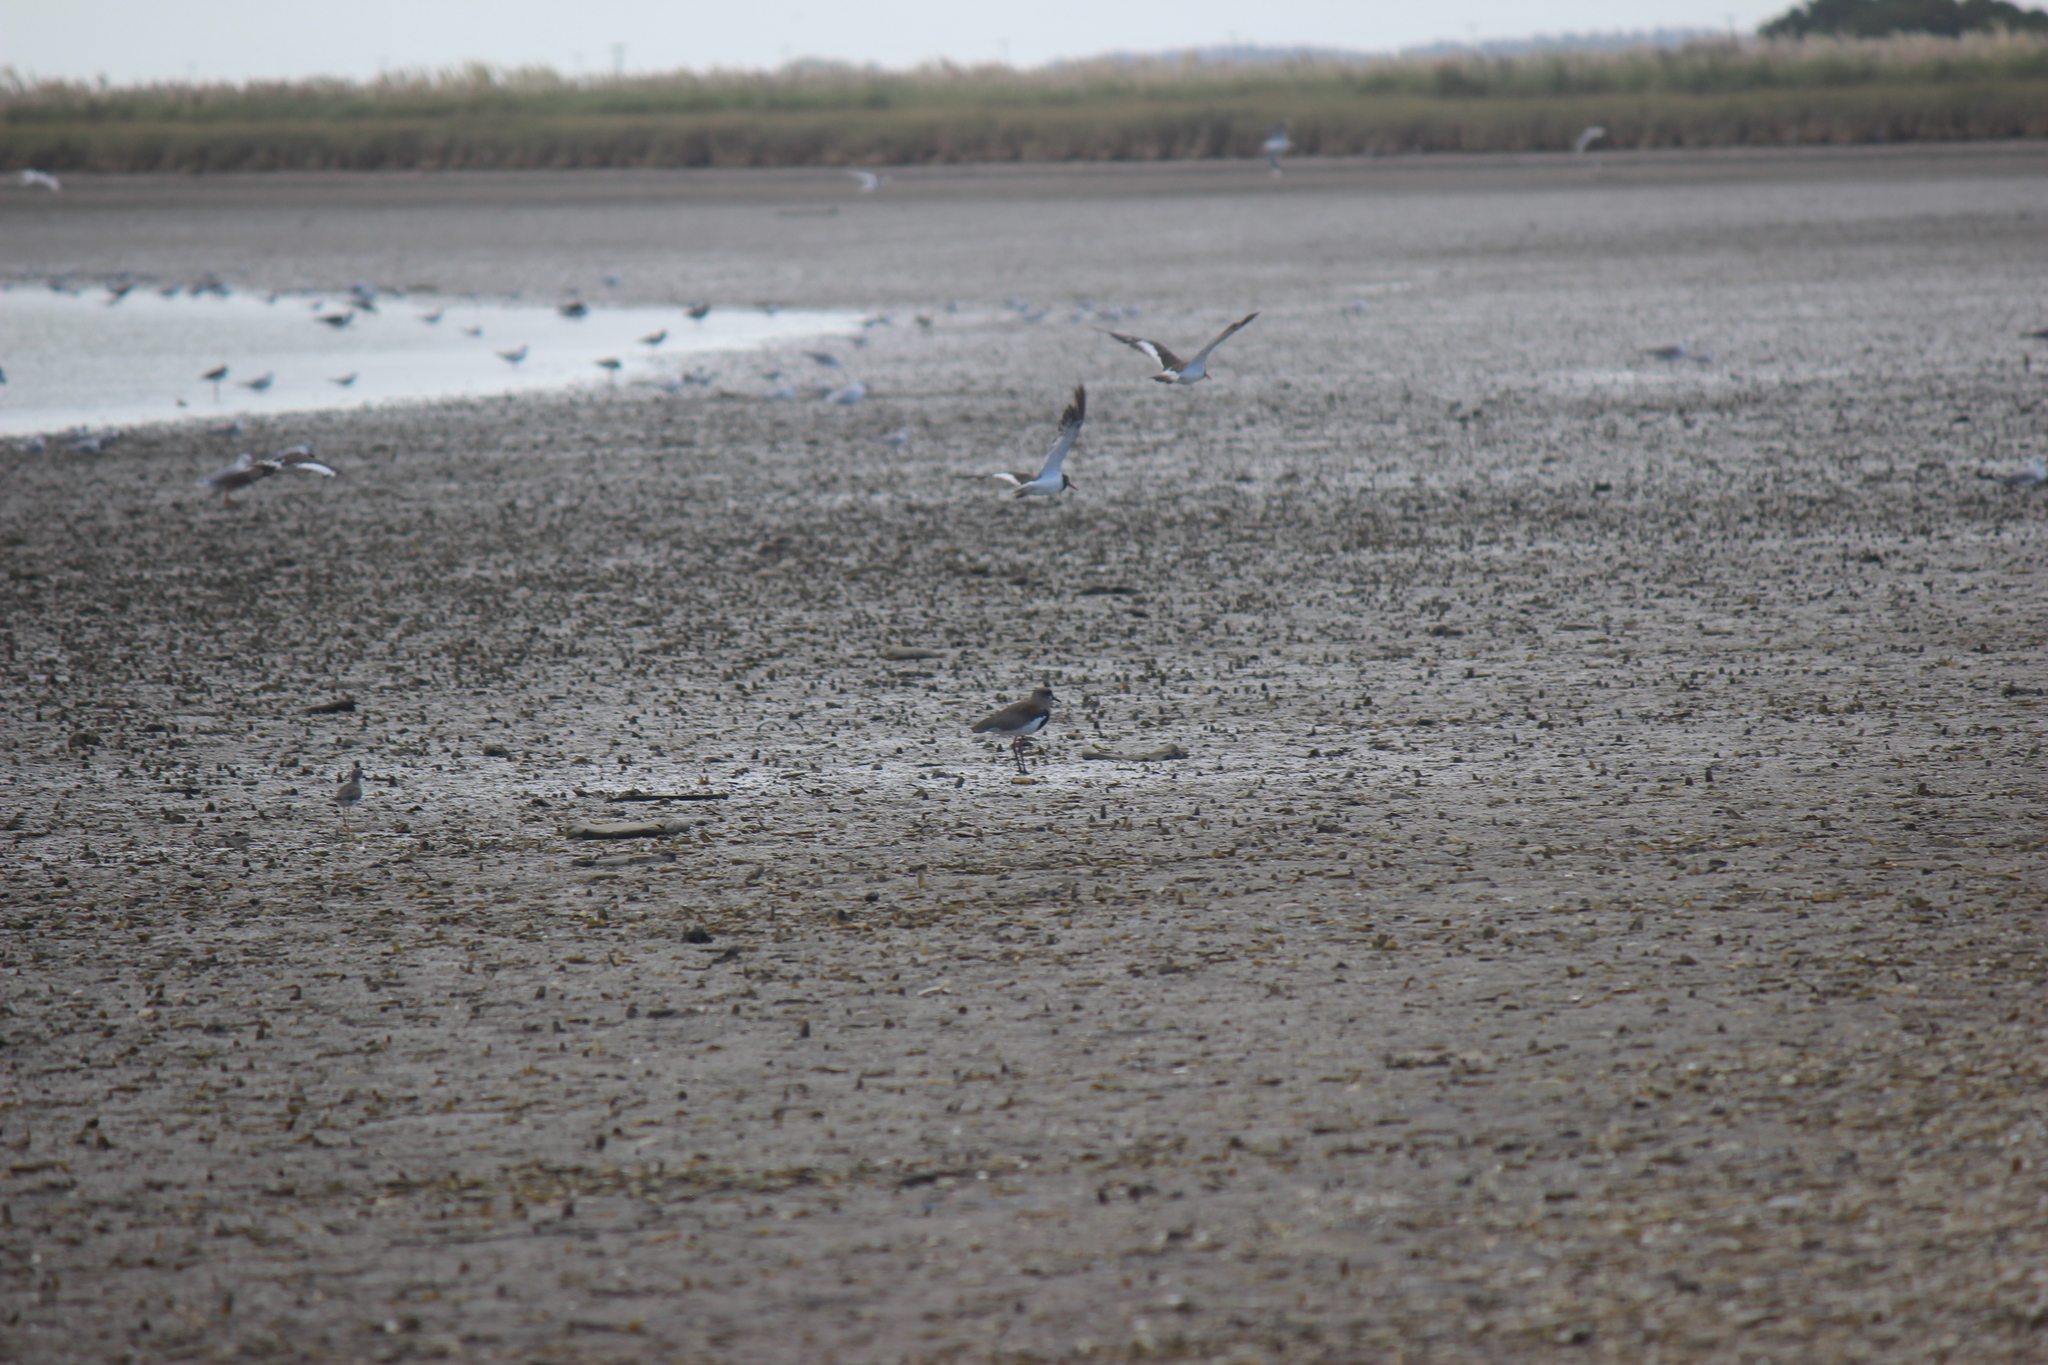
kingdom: Animalia
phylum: Chordata
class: Aves
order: Charadriiformes
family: Charadriidae
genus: Vanellus
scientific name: Vanellus chilensis
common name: Southern lapwing
